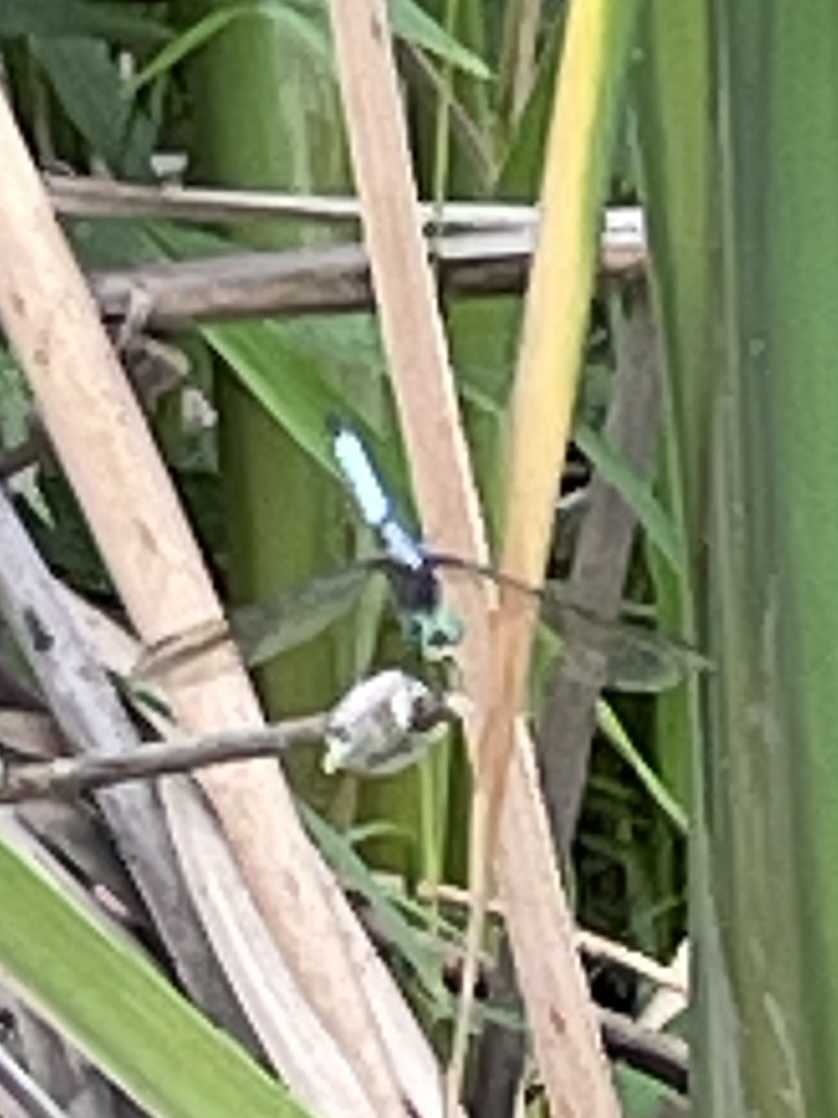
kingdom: Animalia
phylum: Arthropoda
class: Insecta
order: Odonata
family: Libellulidae
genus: Pachydiplax
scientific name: Pachydiplax longipennis
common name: Blue dasher
